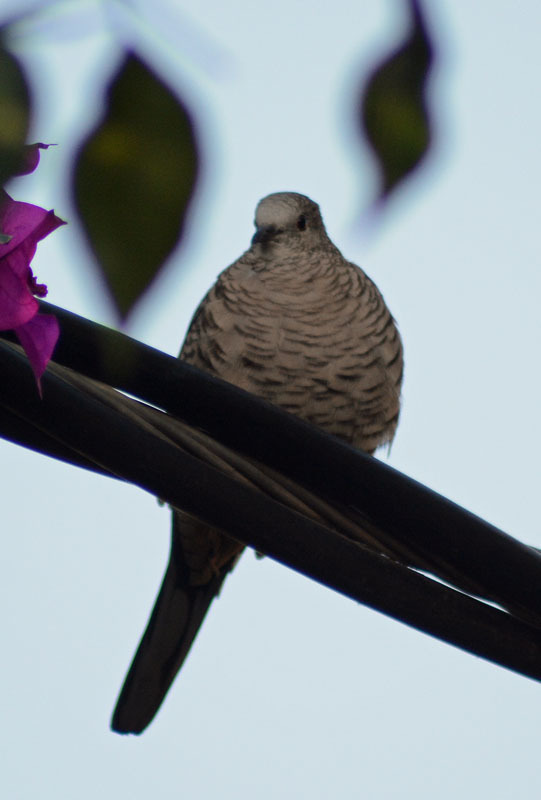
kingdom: Animalia
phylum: Chordata
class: Aves
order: Columbiformes
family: Columbidae
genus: Columbina
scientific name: Columbina inca
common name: Inca dove
